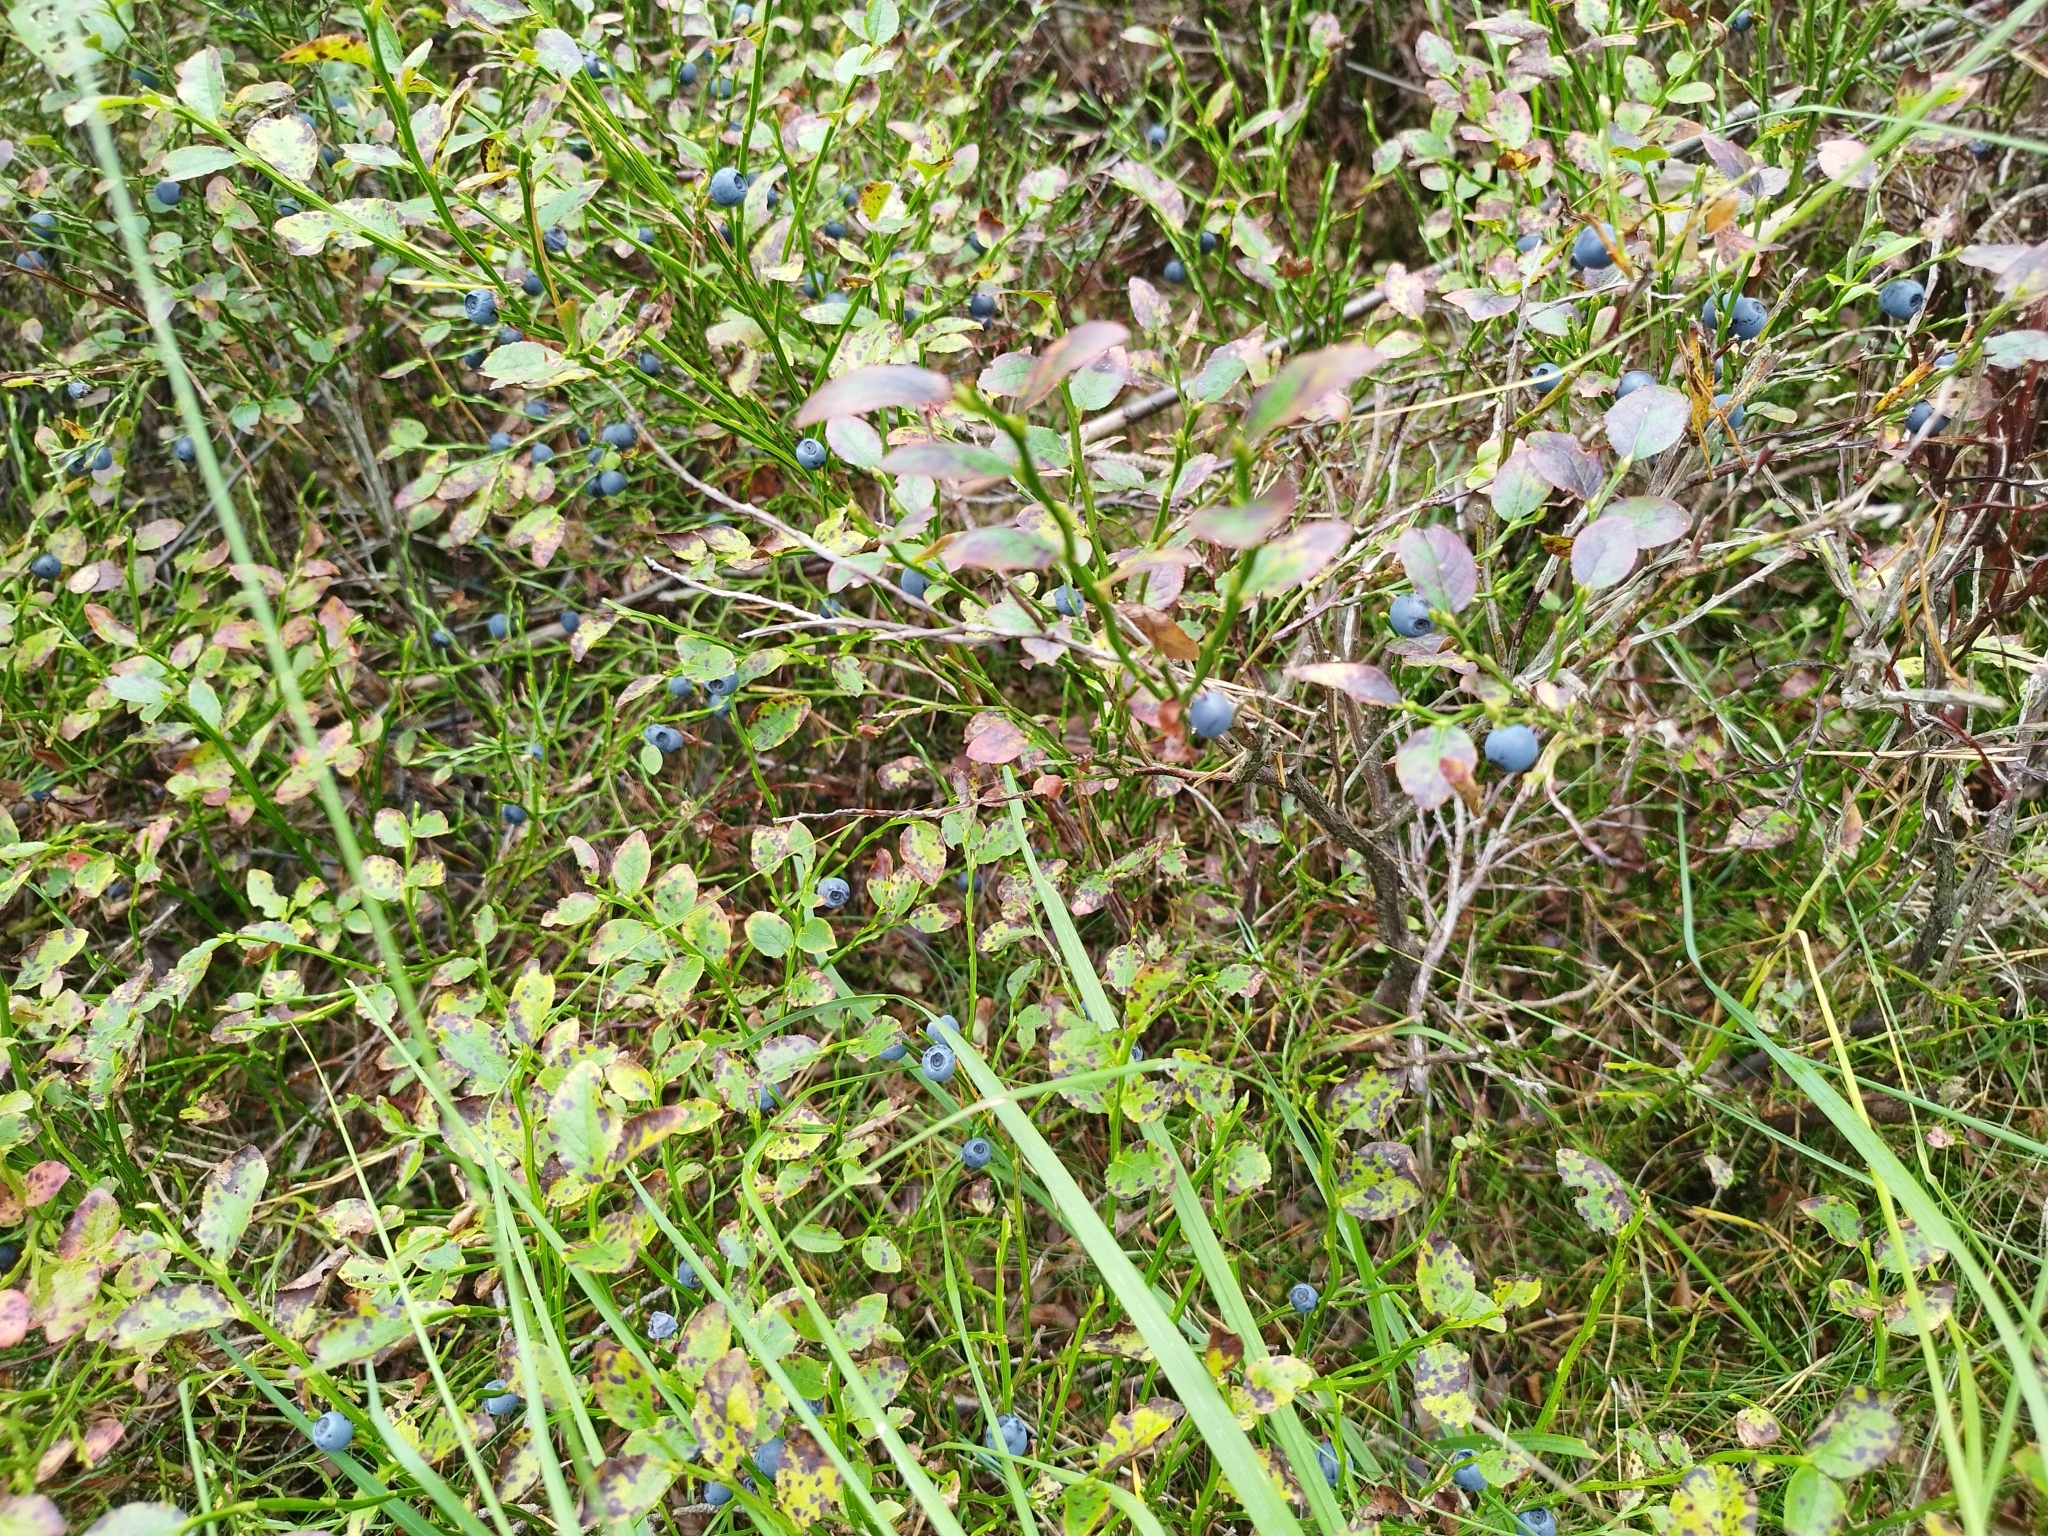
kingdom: Plantae
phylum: Tracheophyta
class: Magnoliopsida
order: Ericales
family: Ericaceae
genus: Vaccinium
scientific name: Vaccinium myrtillus
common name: Bilberry
